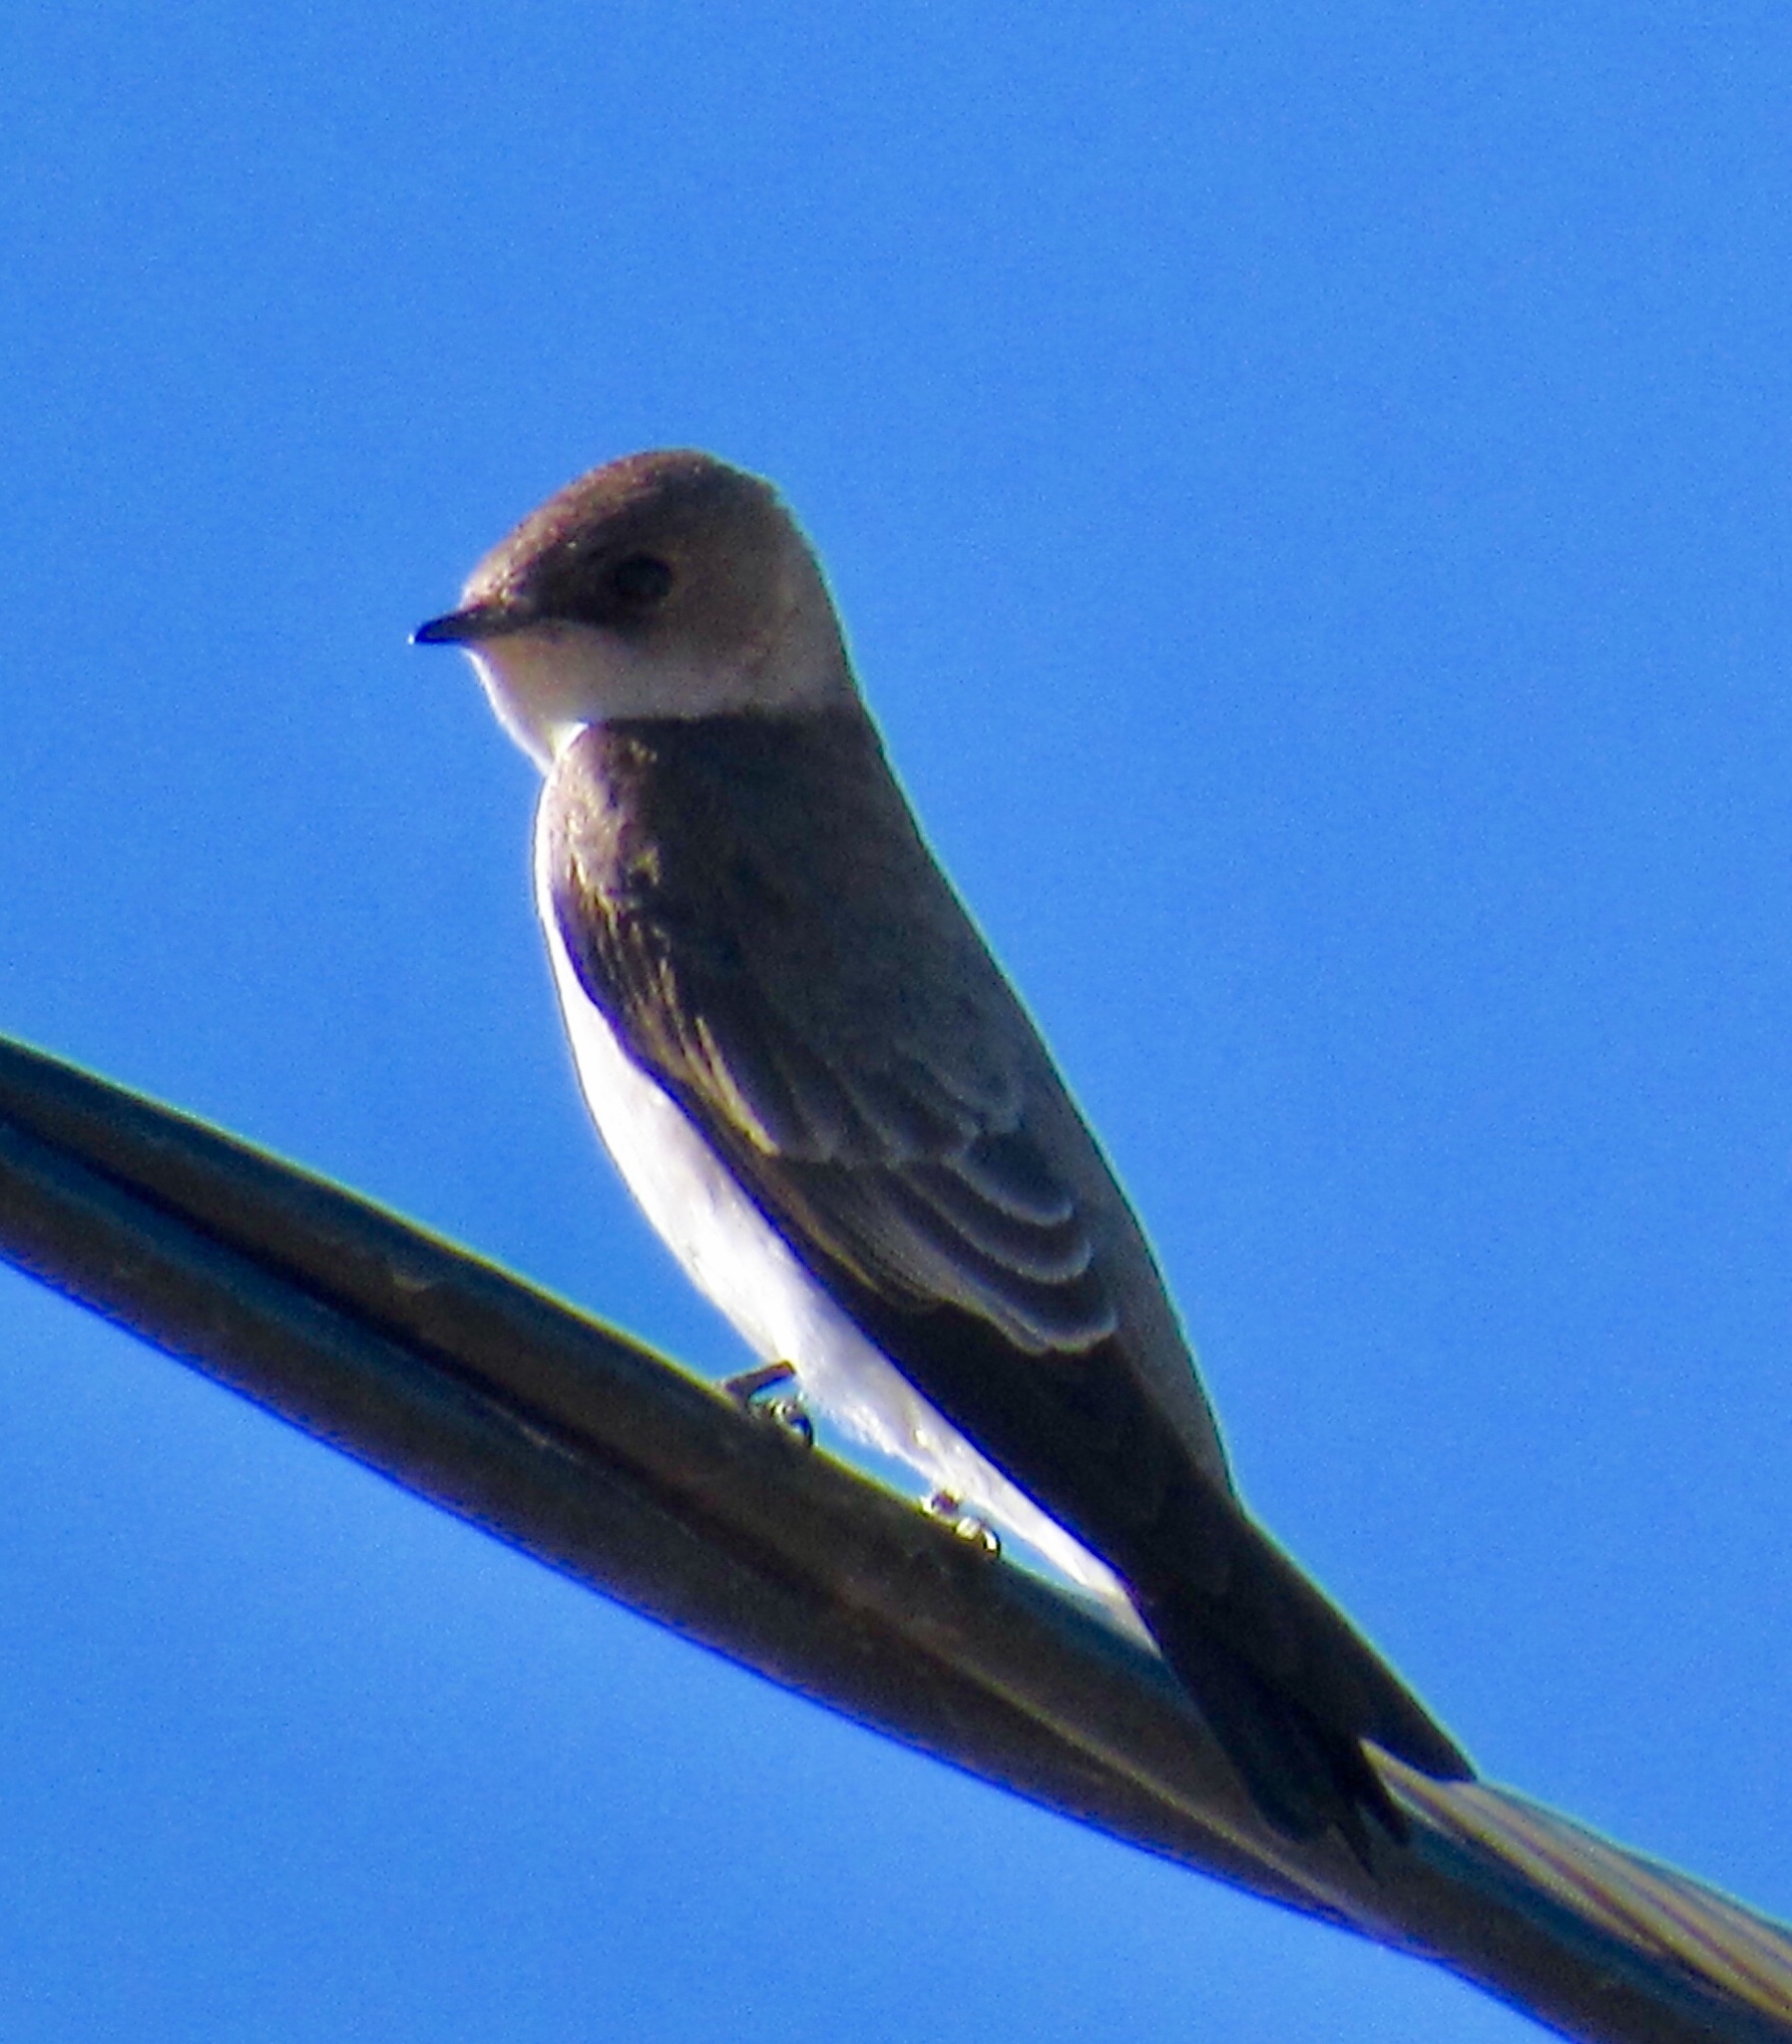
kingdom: Animalia
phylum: Chordata
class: Aves
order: Passeriformes
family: Hirundinidae
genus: Stelgidopteryx
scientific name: Stelgidopteryx serripennis
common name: Northern rough-winged swallow
